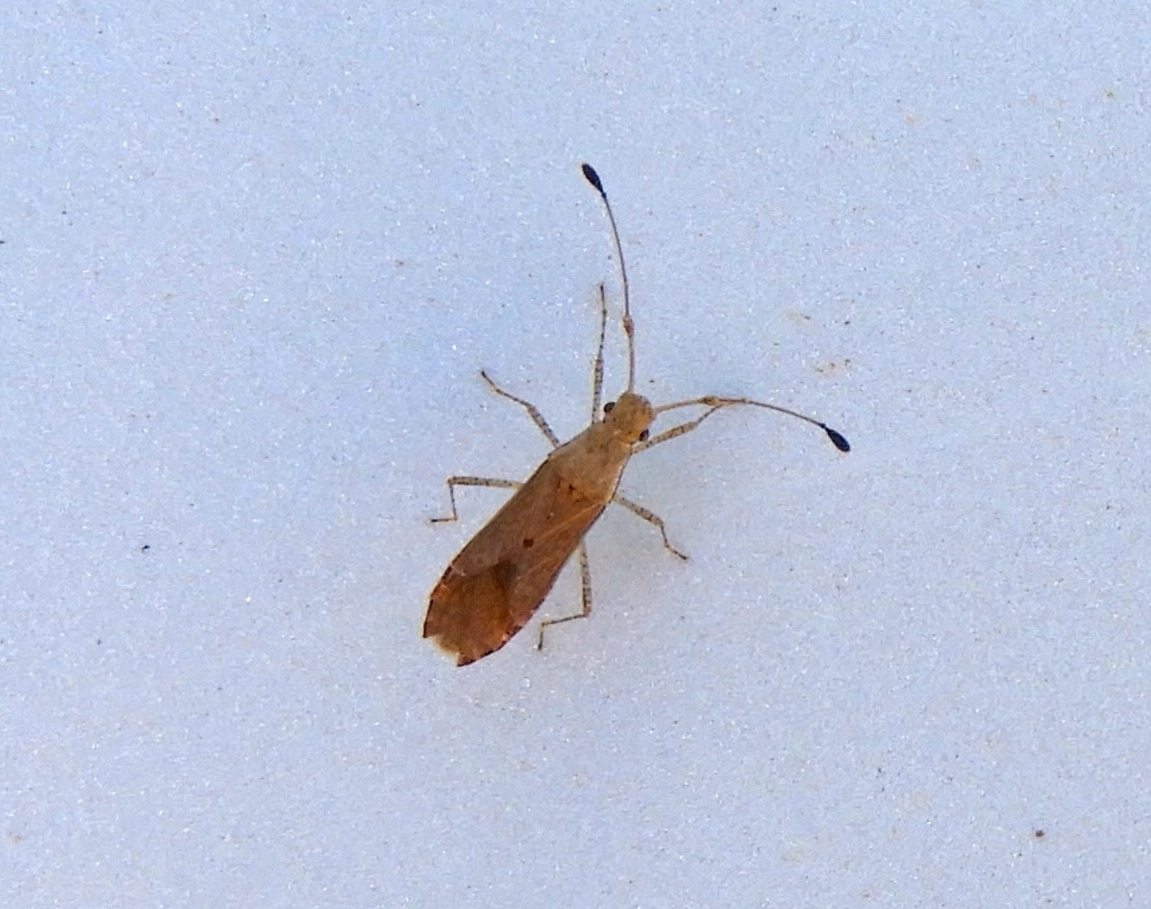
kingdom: Animalia
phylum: Arthropoda
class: Insecta
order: Hemiptera
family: Coreidae
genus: Madura
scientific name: Madura
